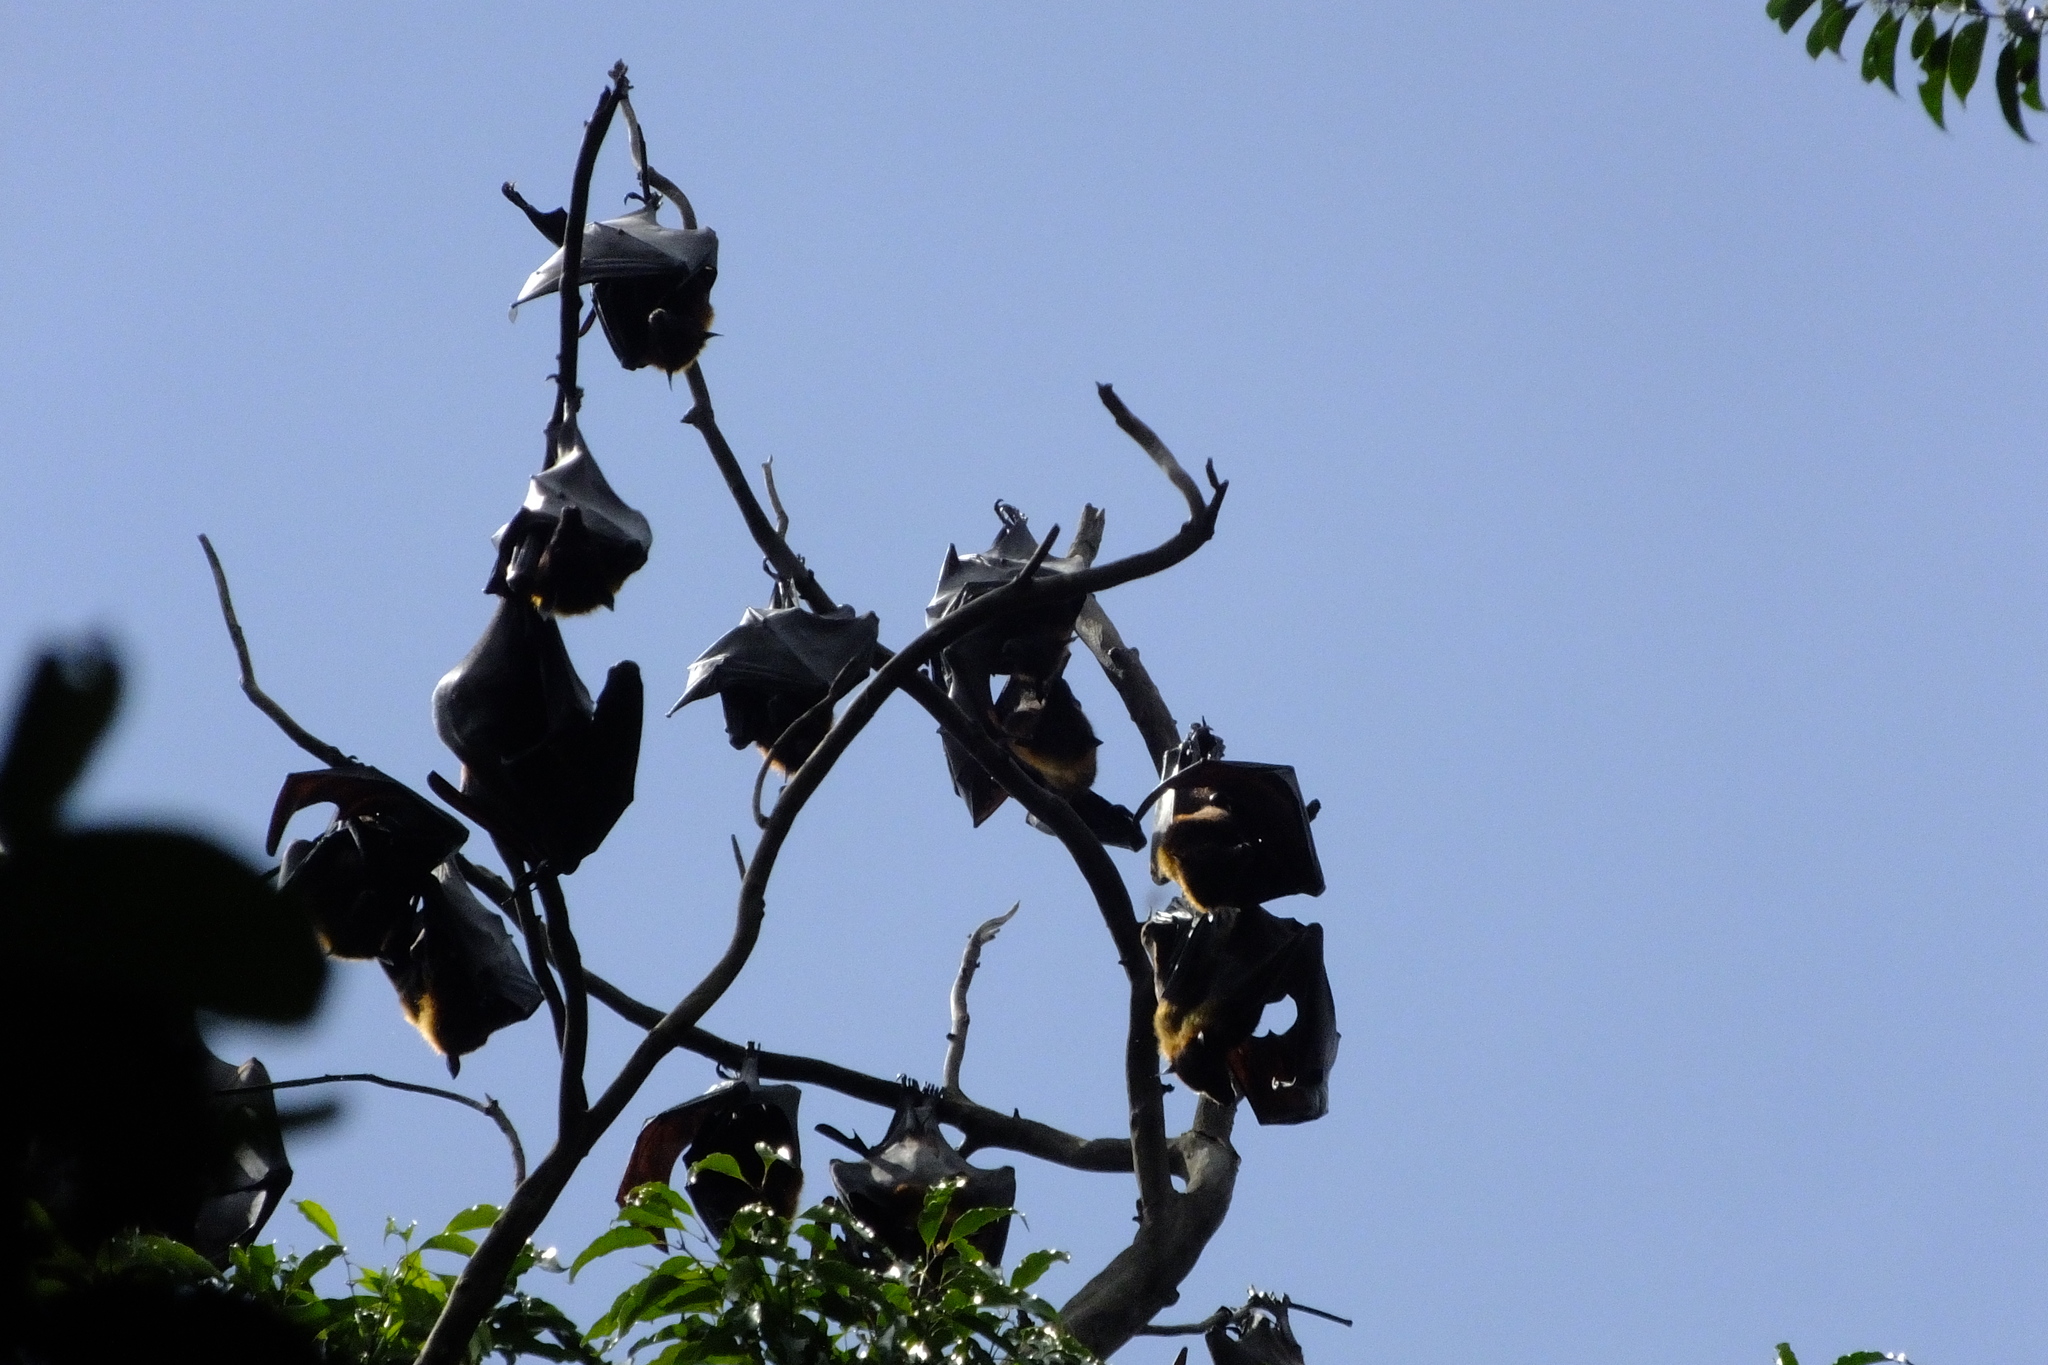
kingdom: Animalia
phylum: Chordata
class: Mammalia
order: Chiroptera
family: Pteropodidae
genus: Pteropus
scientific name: Pteropus vampyrus
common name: Large flying fox
